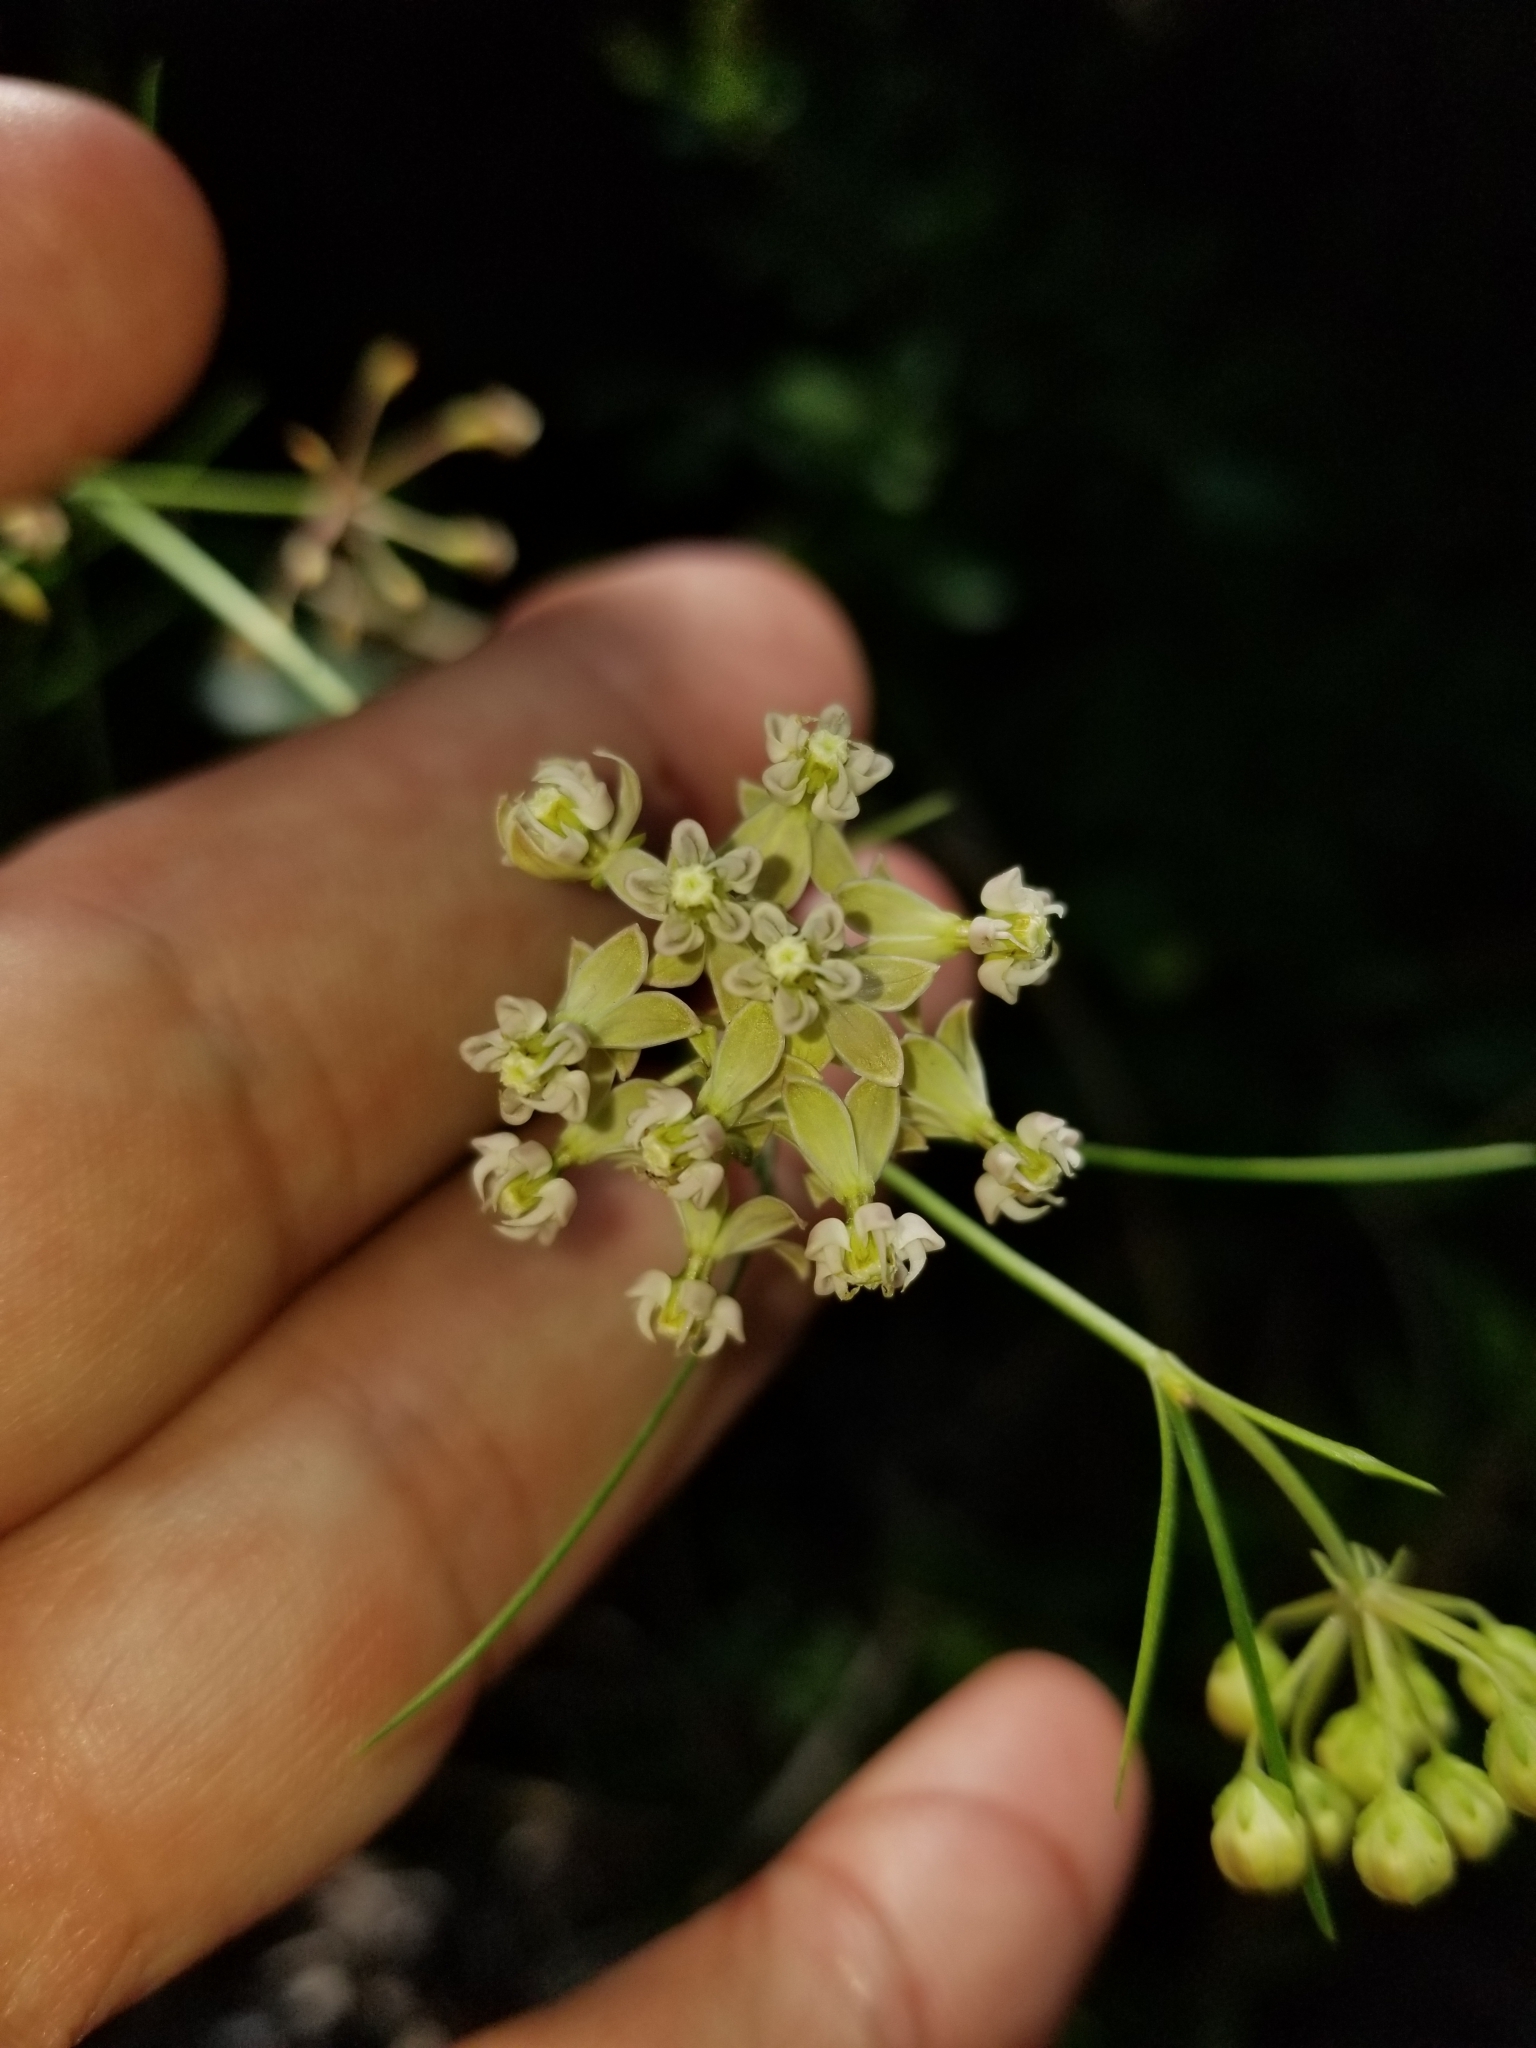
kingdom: Plantae
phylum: Tracheophyta
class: Magnoliopsida
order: Gentianales
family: Apocynaceae
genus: Asclepias
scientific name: Asclepias verticillata
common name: Eastern whorled milkweed
